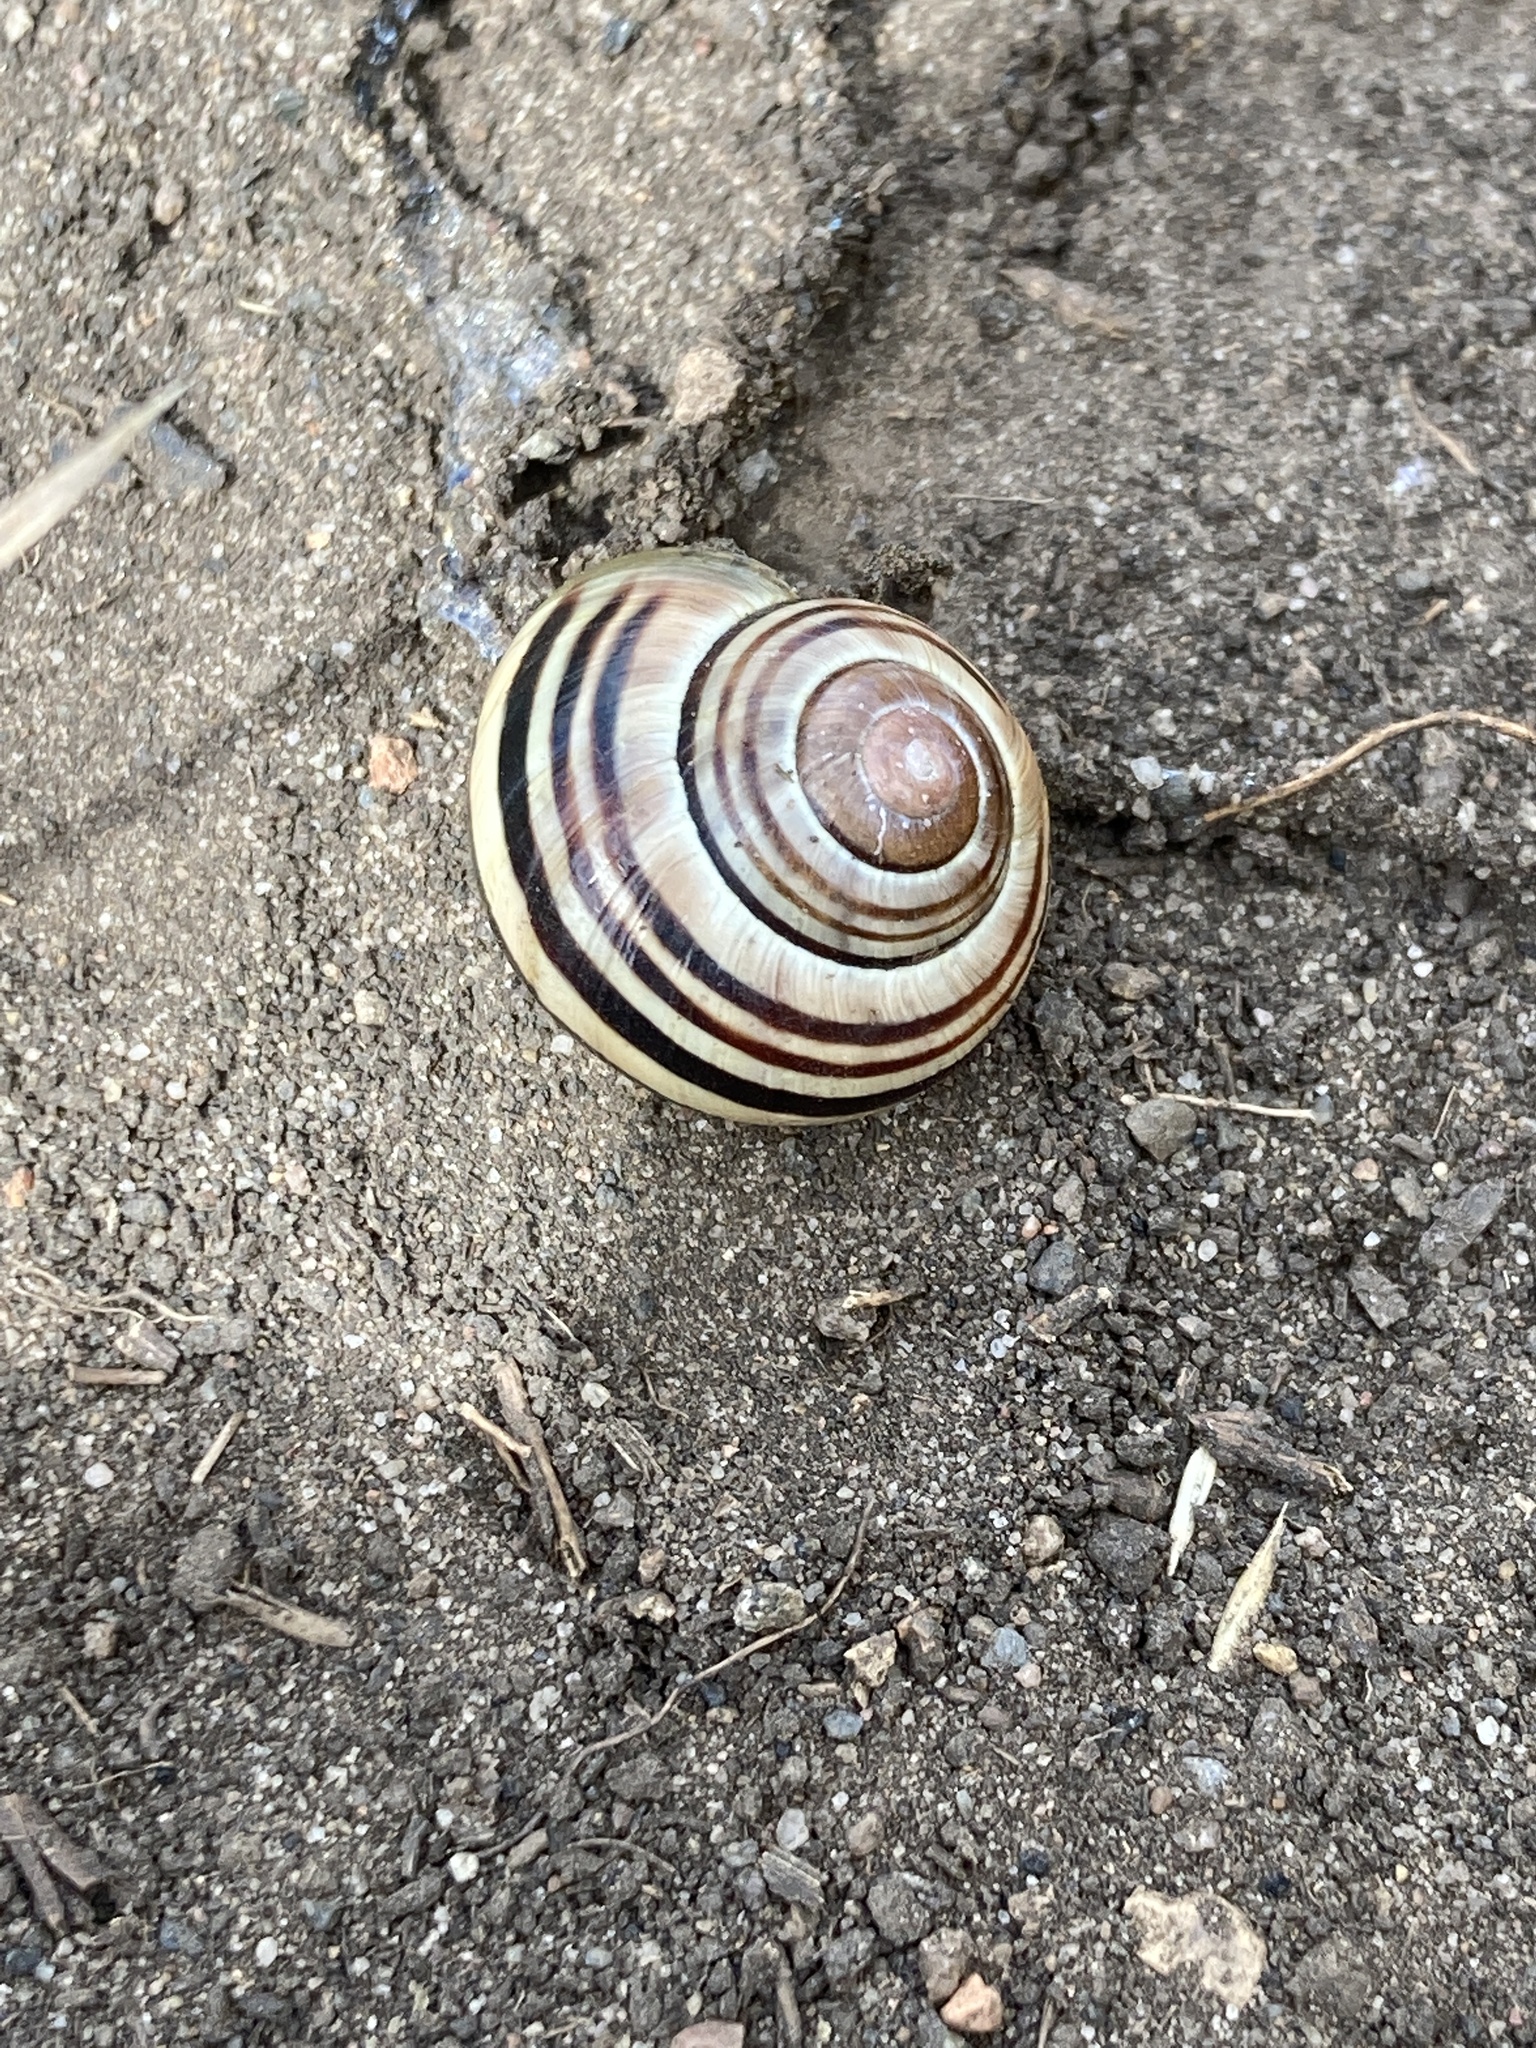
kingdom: Animalia
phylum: Mollusca
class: Gastropoda
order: Stylommatophora
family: Helicidae
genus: Cepaea
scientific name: Cepaea
